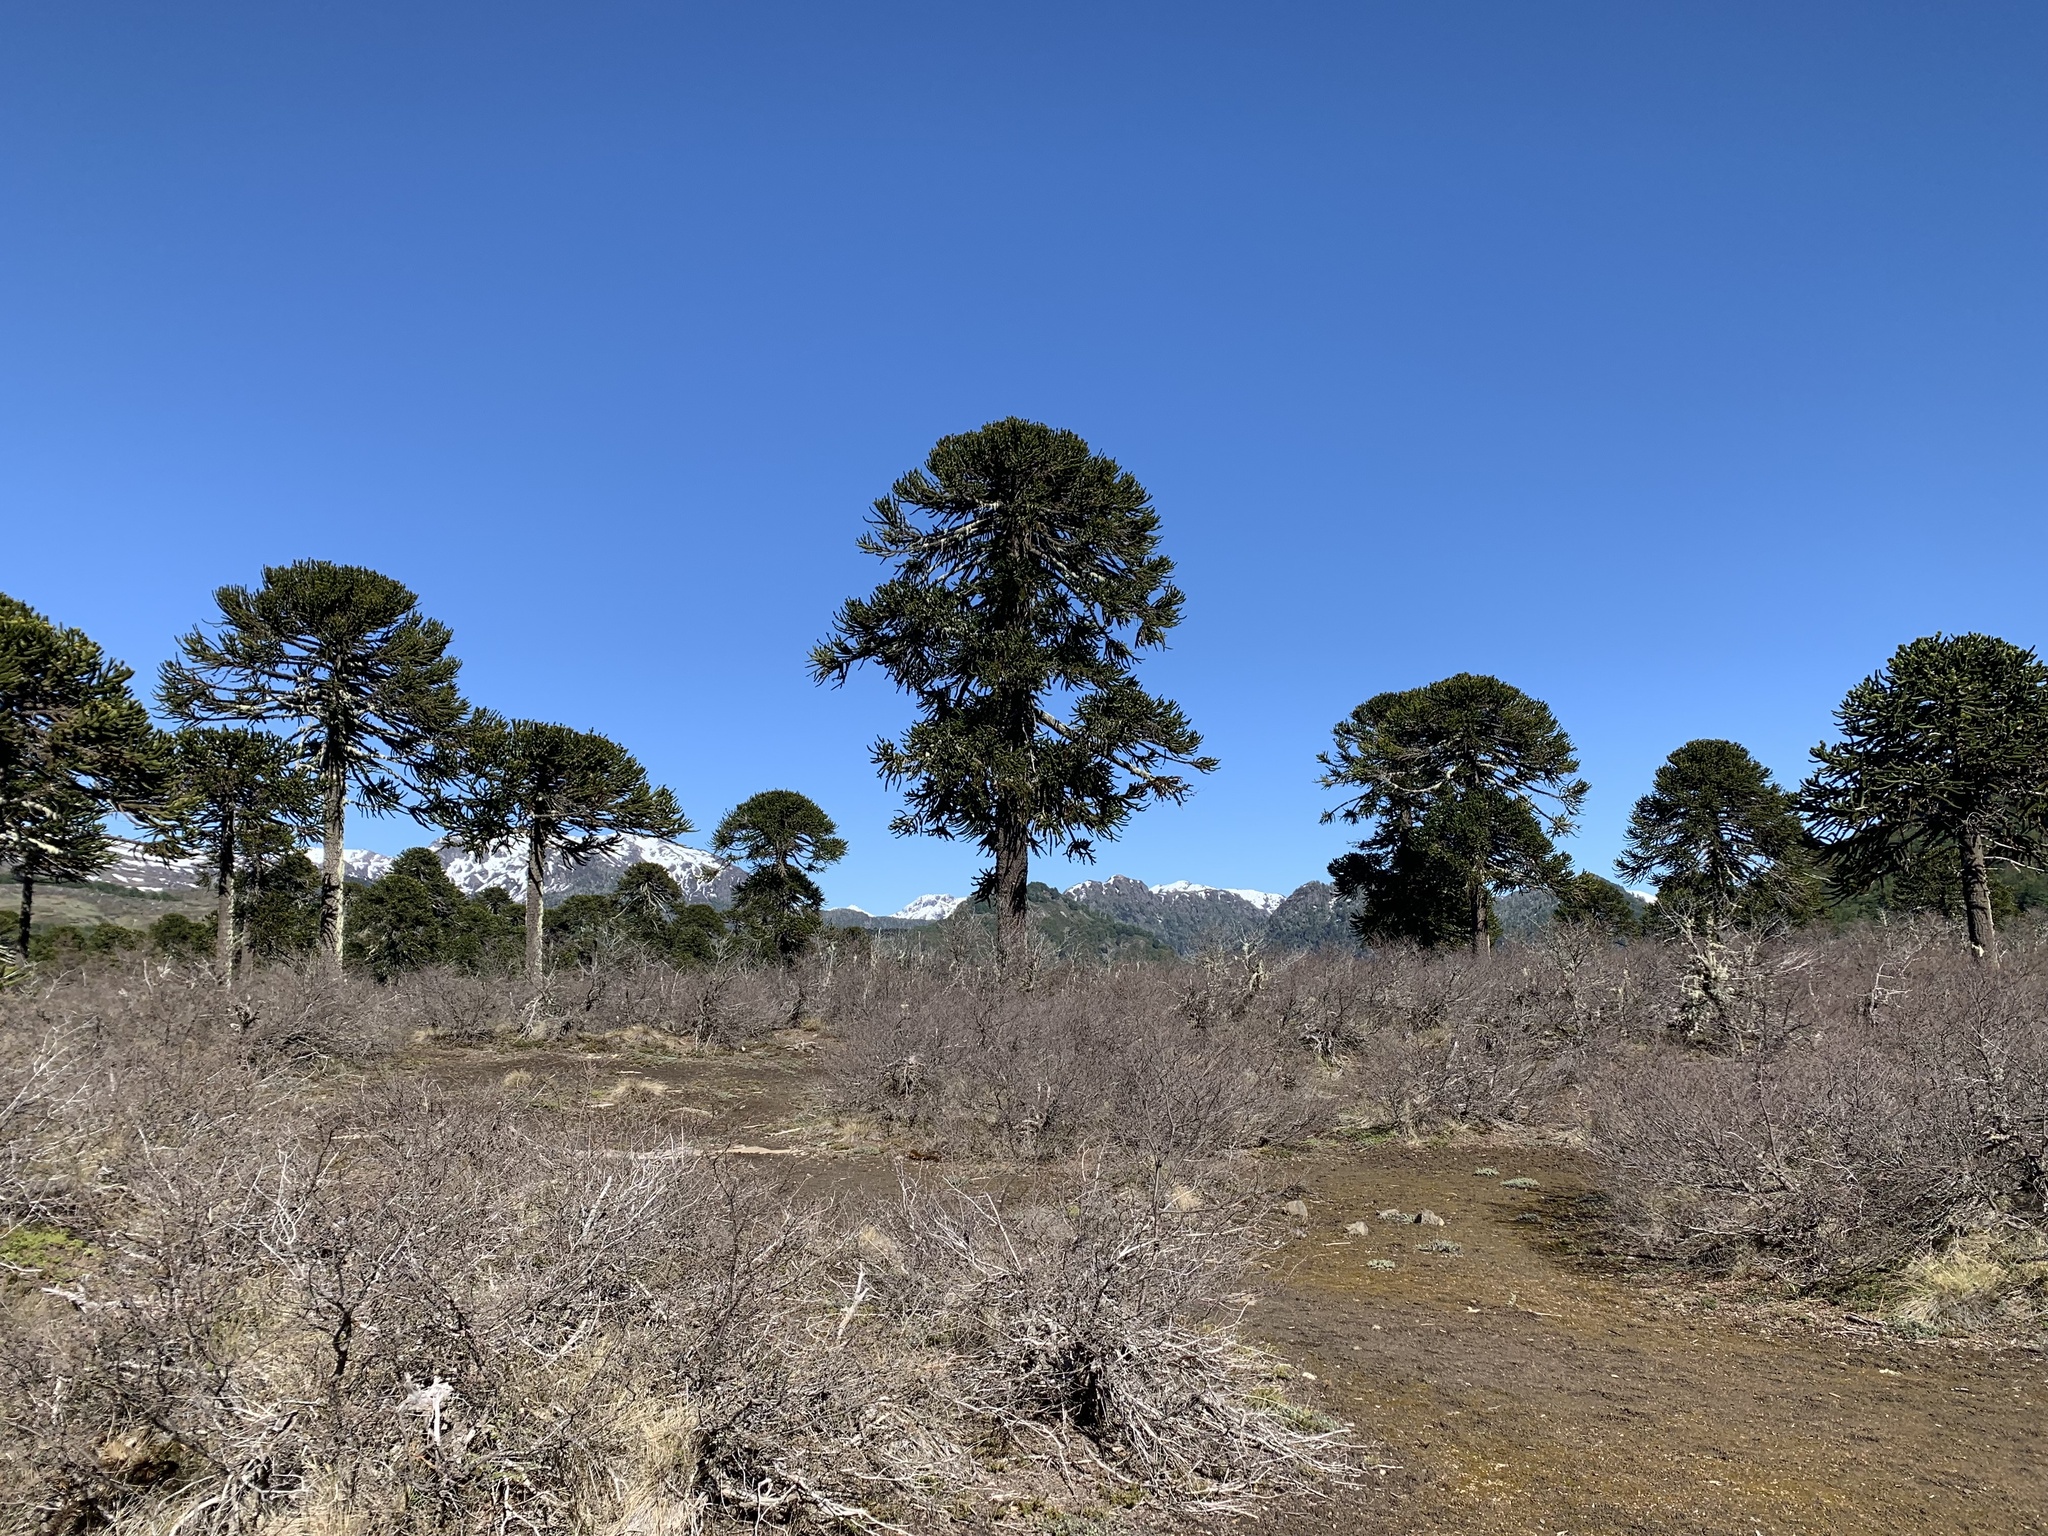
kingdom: Plantae
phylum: Tracheophyta
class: Pinopsida
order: Pinales
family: Araucariaceae
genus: Araucaria
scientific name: Araucaria araucana
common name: Monkey-puzzle
